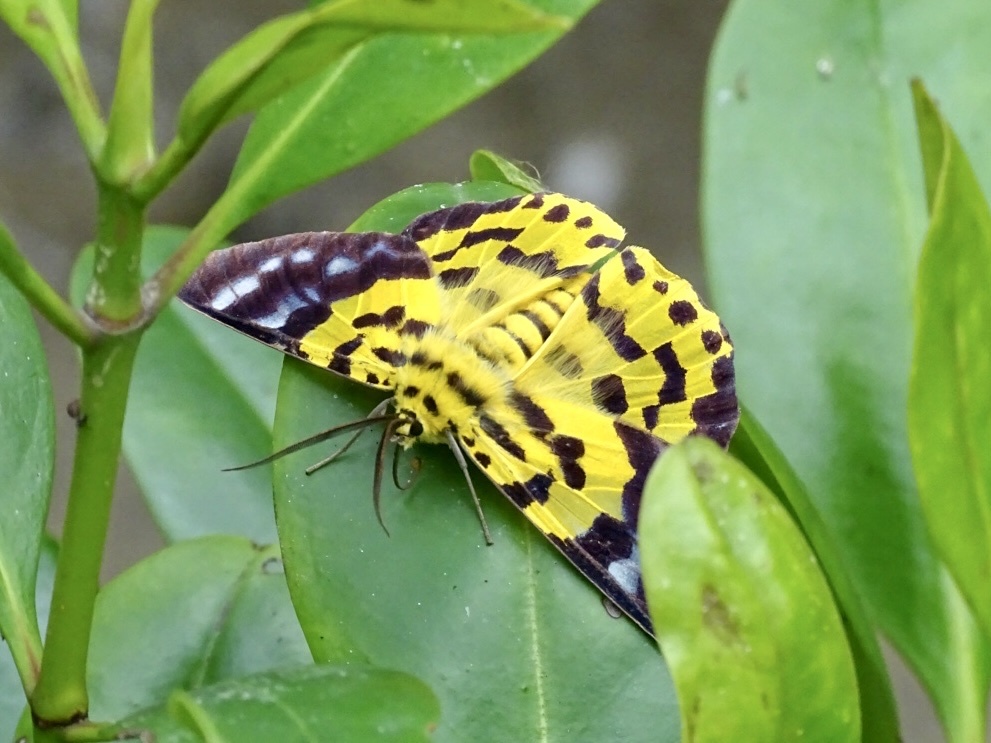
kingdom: Animalia
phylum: Arthropoda
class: Insecta
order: Lepidoptera
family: Geometridae
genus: Dysphania
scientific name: Dysphania militaris
